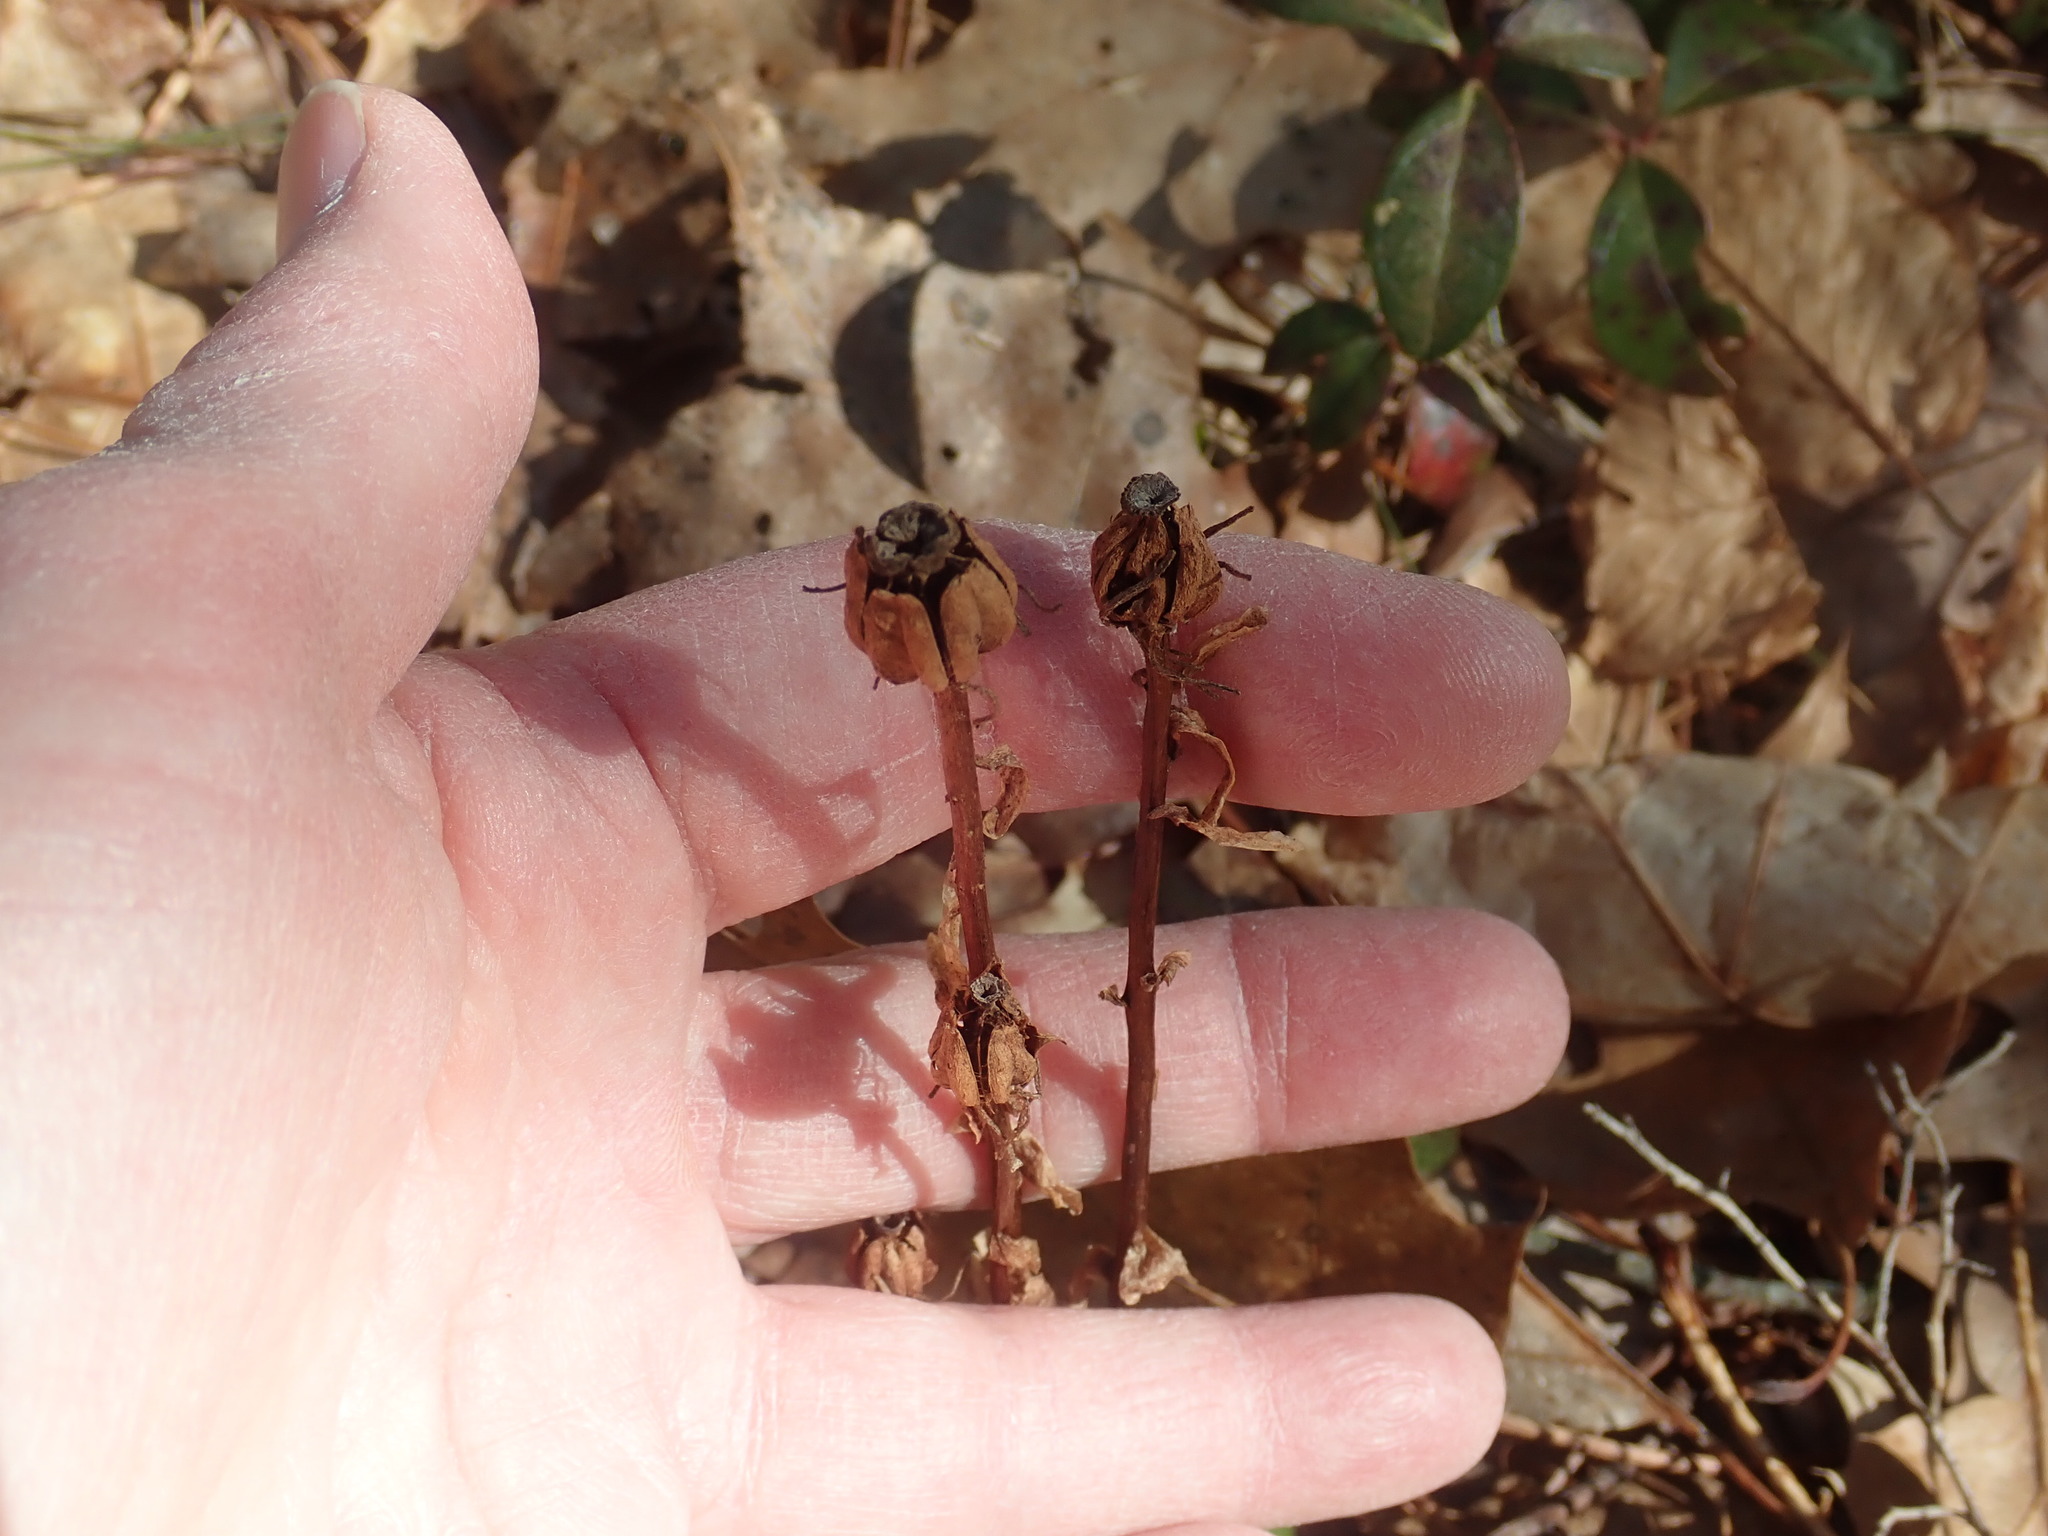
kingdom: Plantae
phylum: Tracheophyta
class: Magnoliopsida
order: Ericales
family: Ericaceae
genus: Monotropa
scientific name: Monotropa uniflora
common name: Convulsion root
